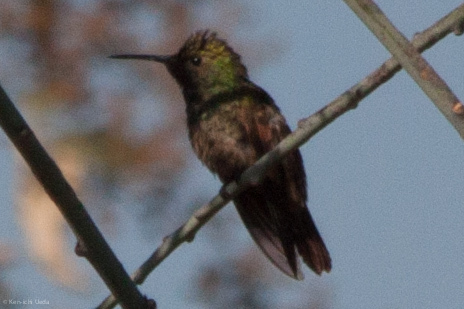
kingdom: Animalia
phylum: Chordata
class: Aves
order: Apodiformes
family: Trochilidae
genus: Saucerottia
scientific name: Saucerottia beryllina
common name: Berylline hummingbird
